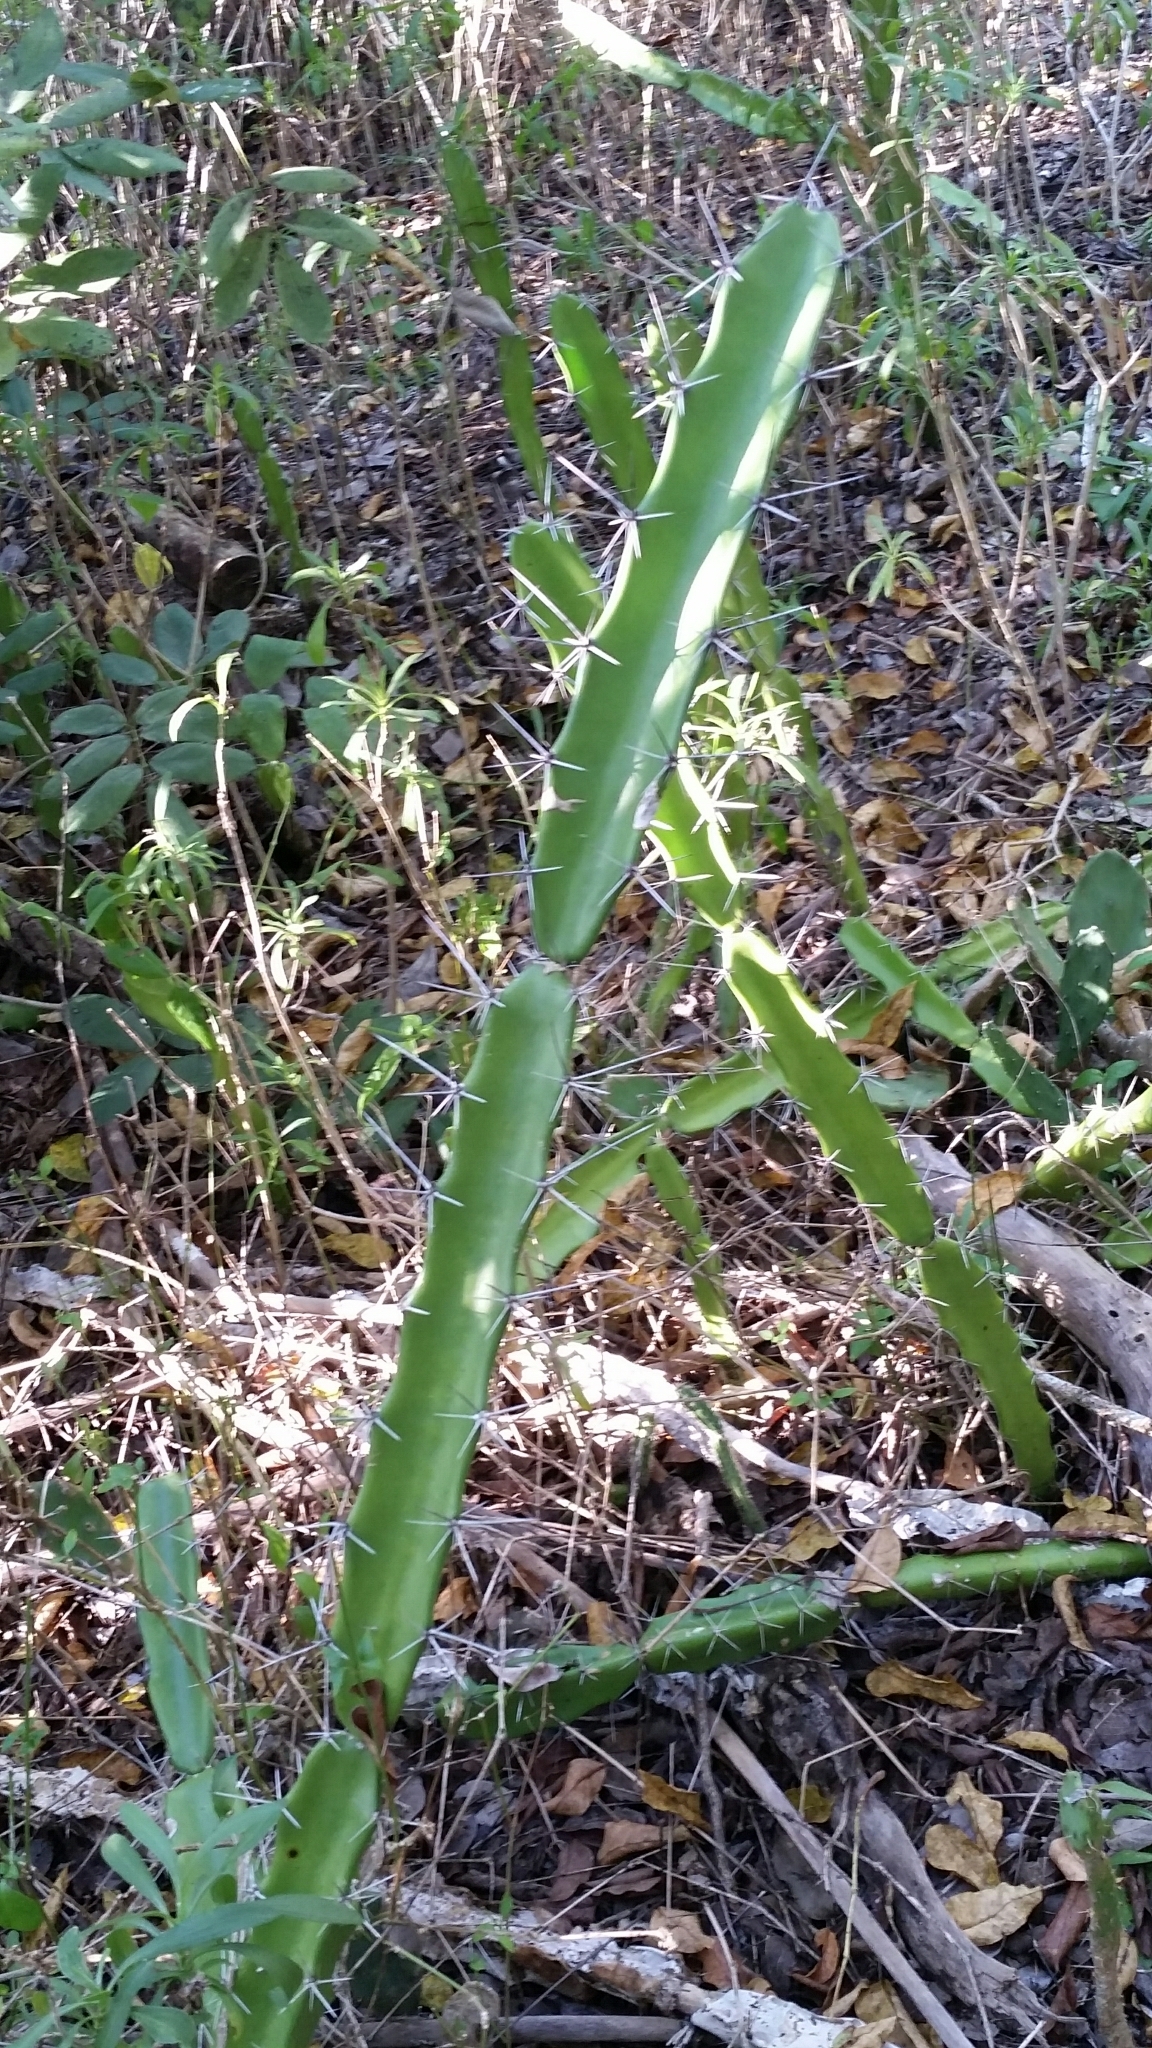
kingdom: Plantae
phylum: Tracheophyta
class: Magnoliopsida
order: Caryophyllales
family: Cactaceae
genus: Acanthocereus
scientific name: Acanthocereus tetragonus
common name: Triangle cactus
